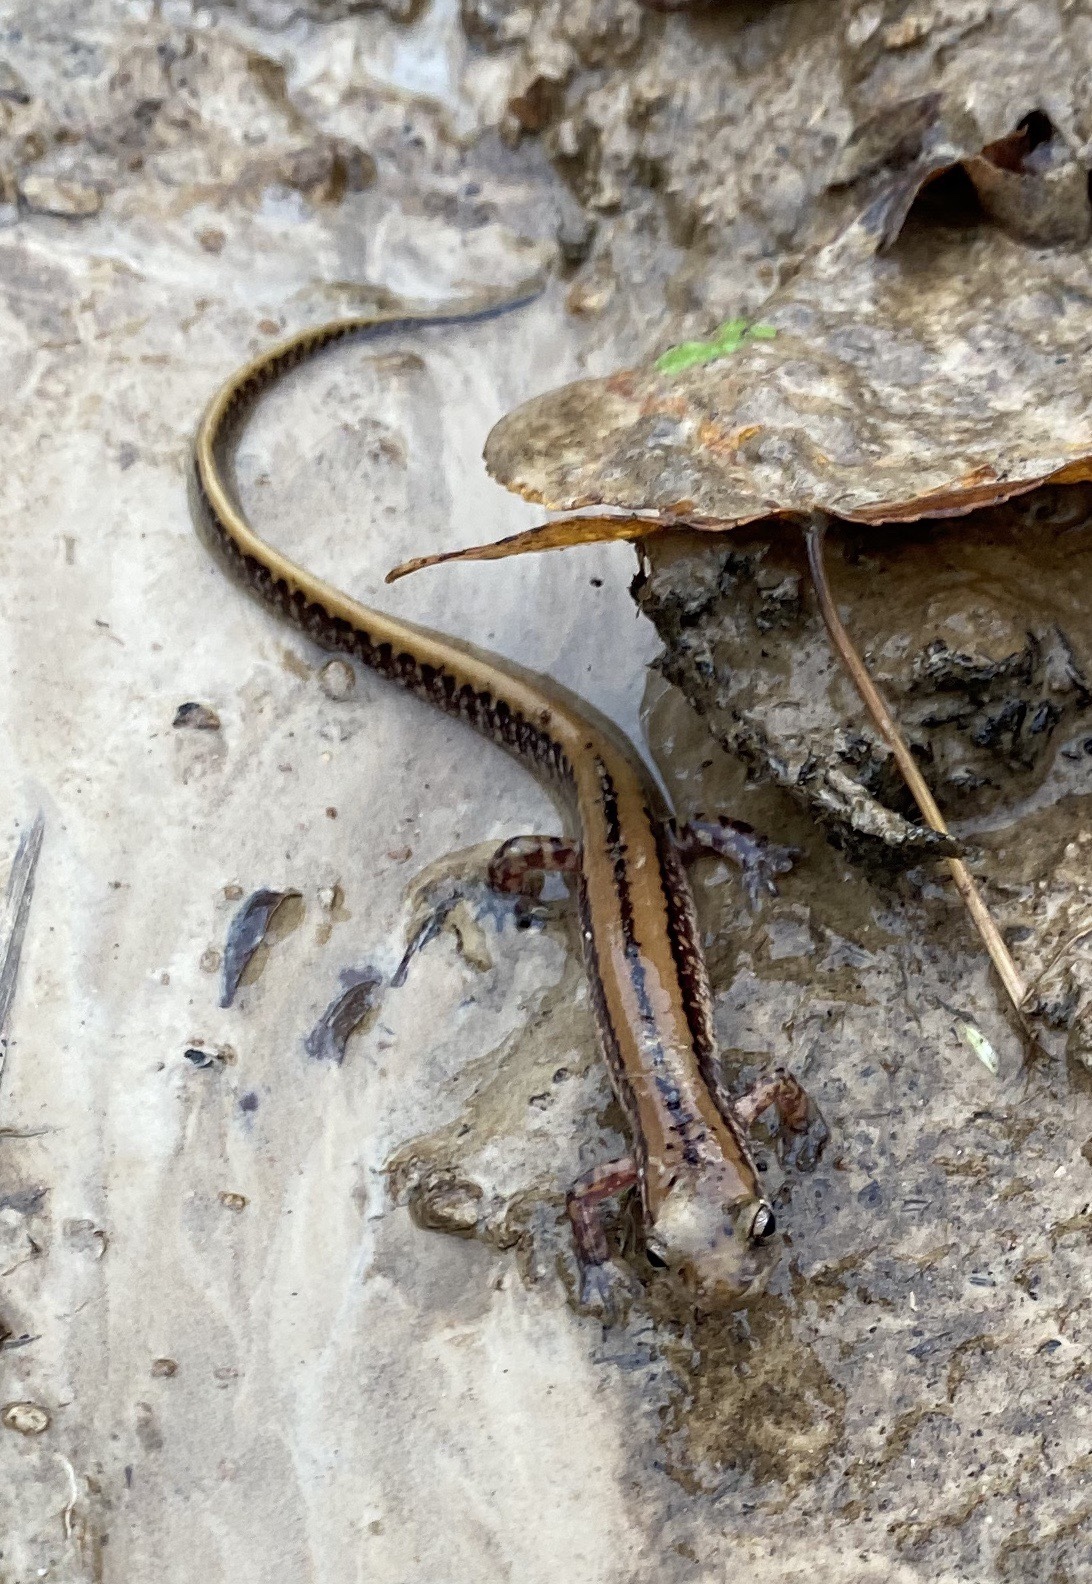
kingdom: Animalia
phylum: Chordata
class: Amphibia
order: Caudata
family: Plethodontidae
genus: Eurycea
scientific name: Eurycea guttolineata
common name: Three-lined salamander
